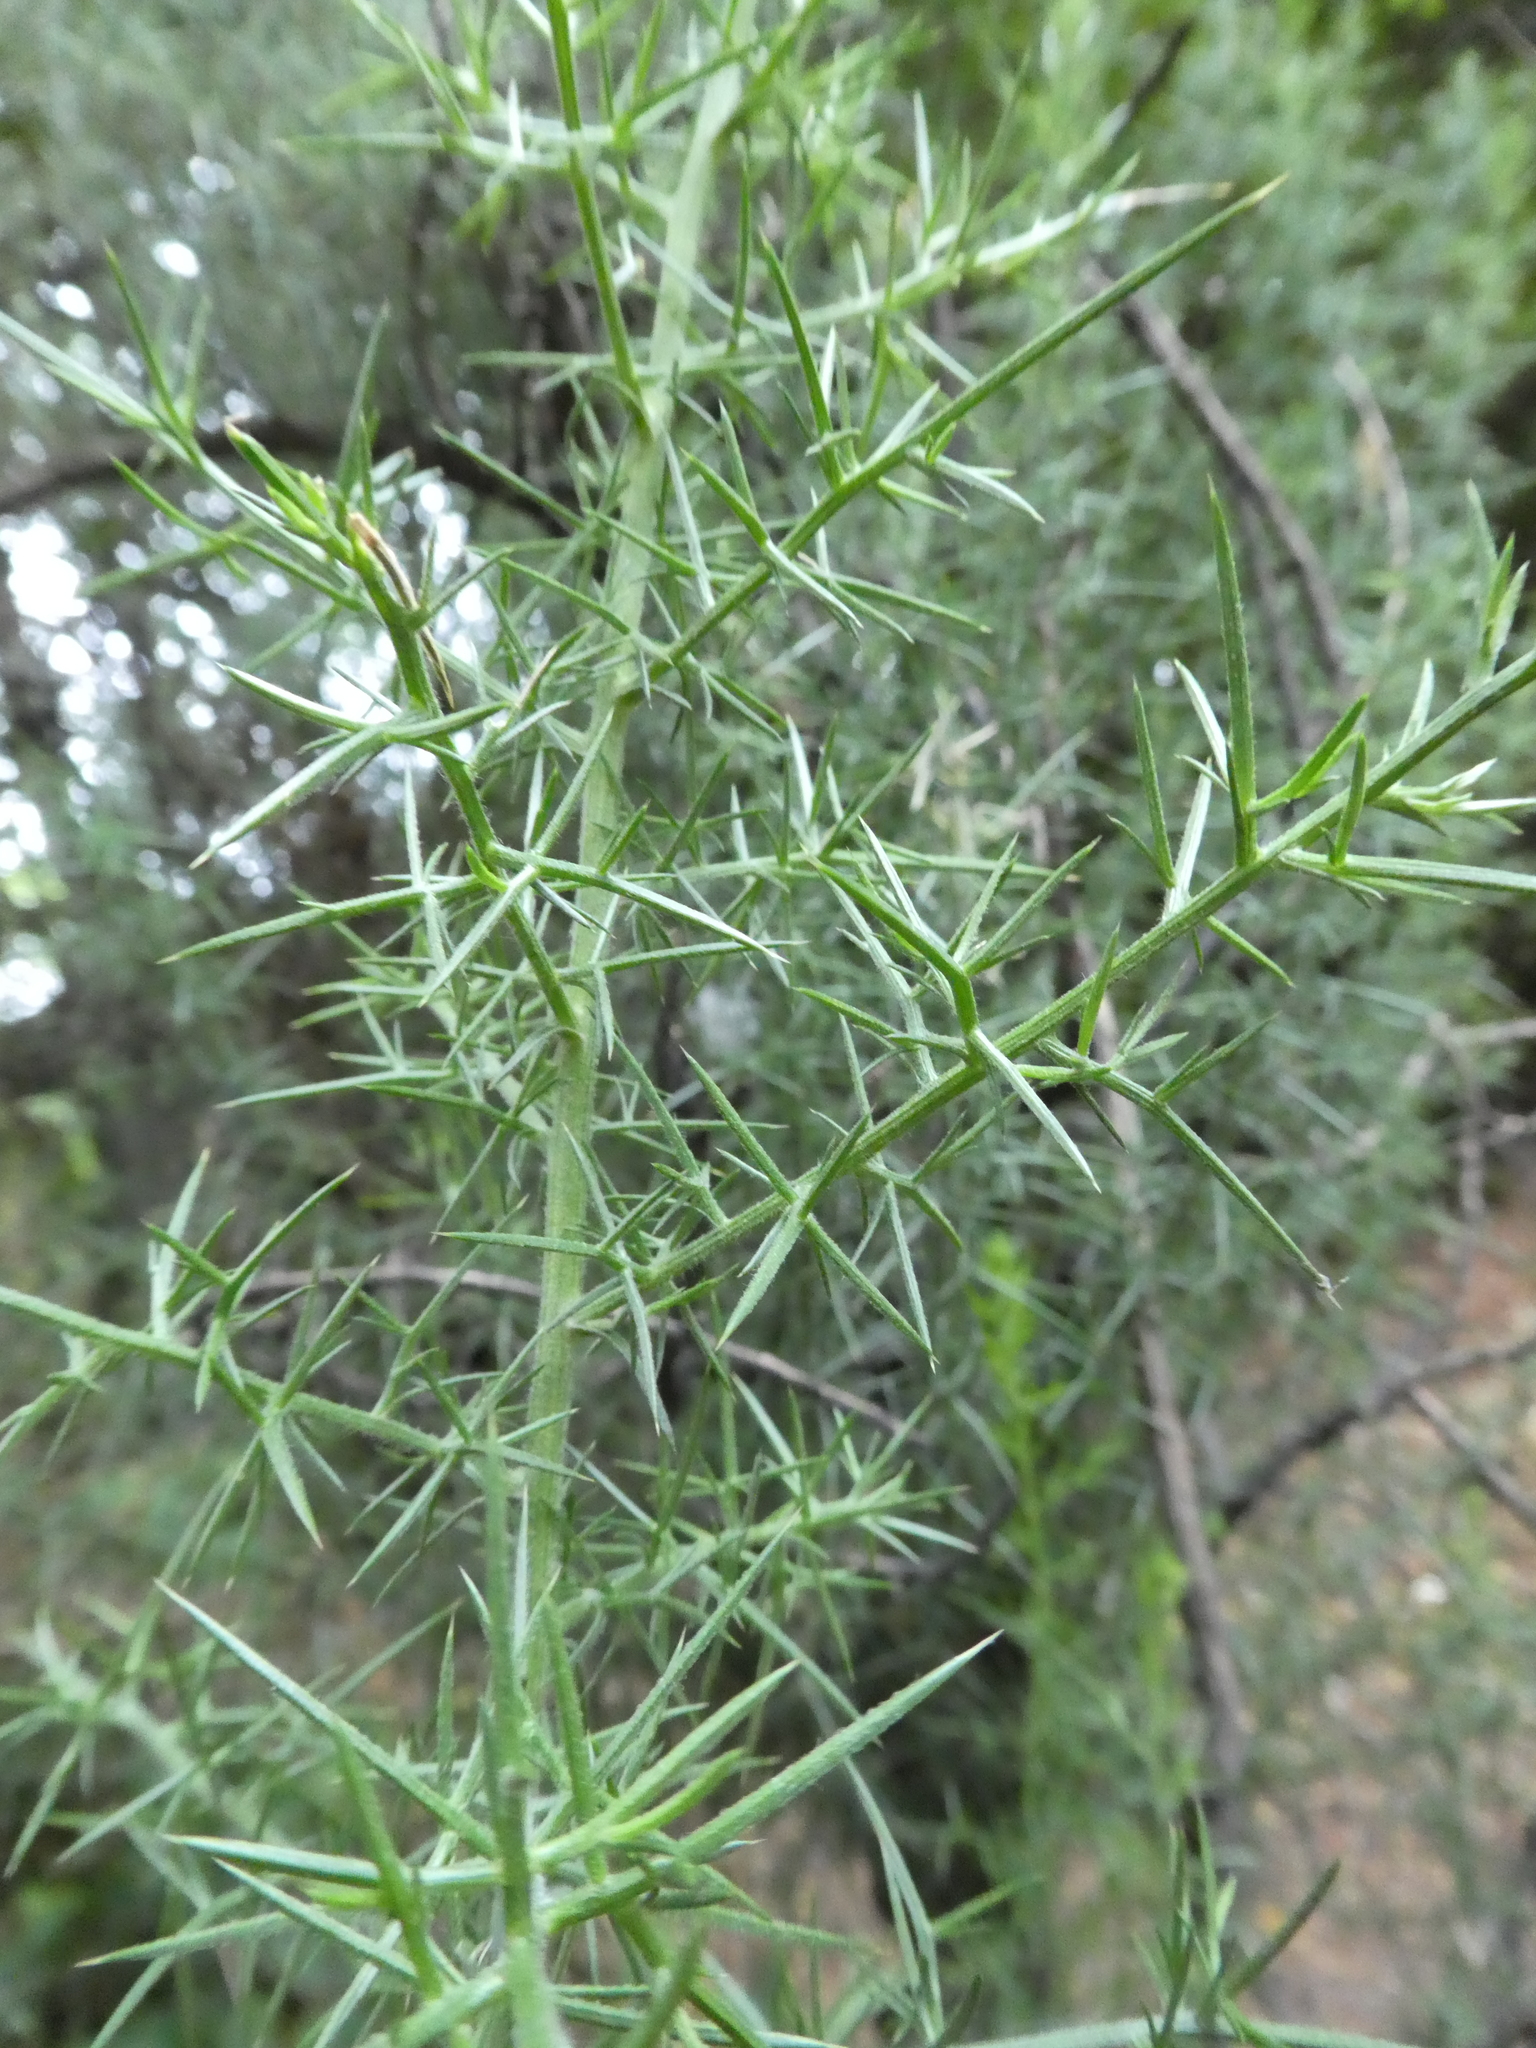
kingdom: Plantae
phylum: Tracheophyta
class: Magnoliopsida
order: Fabales
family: Fabaceae
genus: Ulex
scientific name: Ulex europaeus
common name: Common gorse
